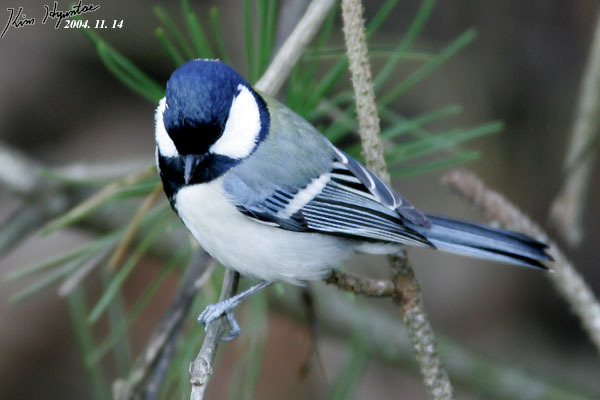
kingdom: Animalia
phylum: Chordata
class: Aves
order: Passeriformes
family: Paridae
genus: Parus
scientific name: Parus minor
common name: Japanese tit
